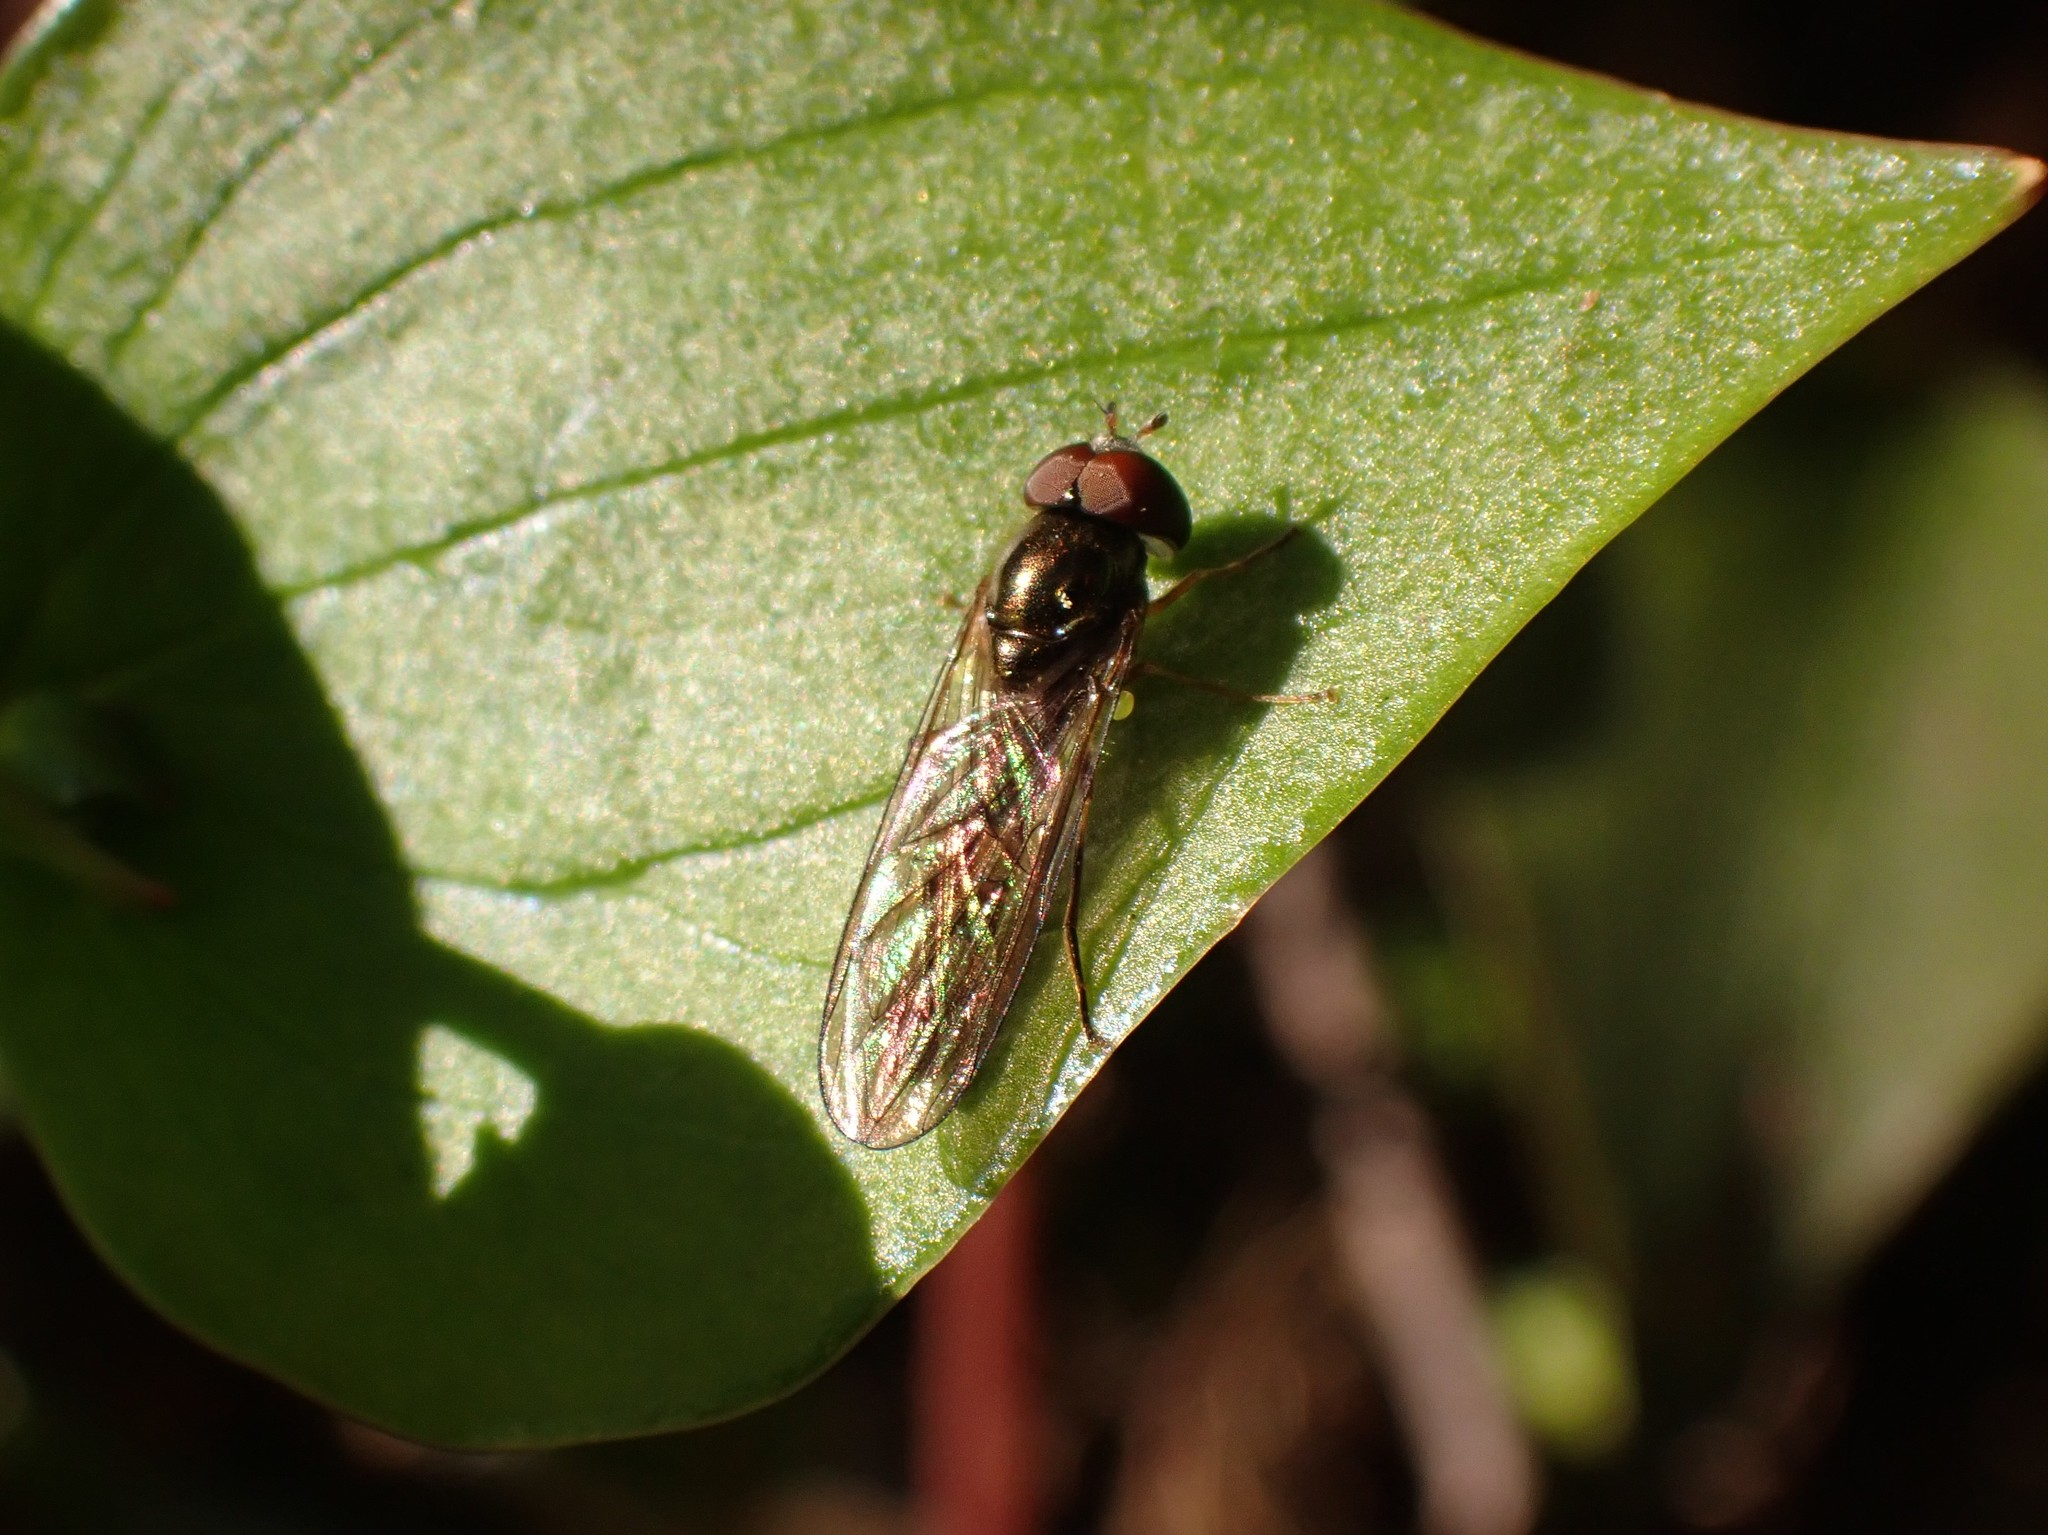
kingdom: Animalia
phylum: Arthropoda
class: Insecta
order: Diptera
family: Syrphidae
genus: Melanostoma
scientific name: Melanostoma mellina
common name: Hover fly
